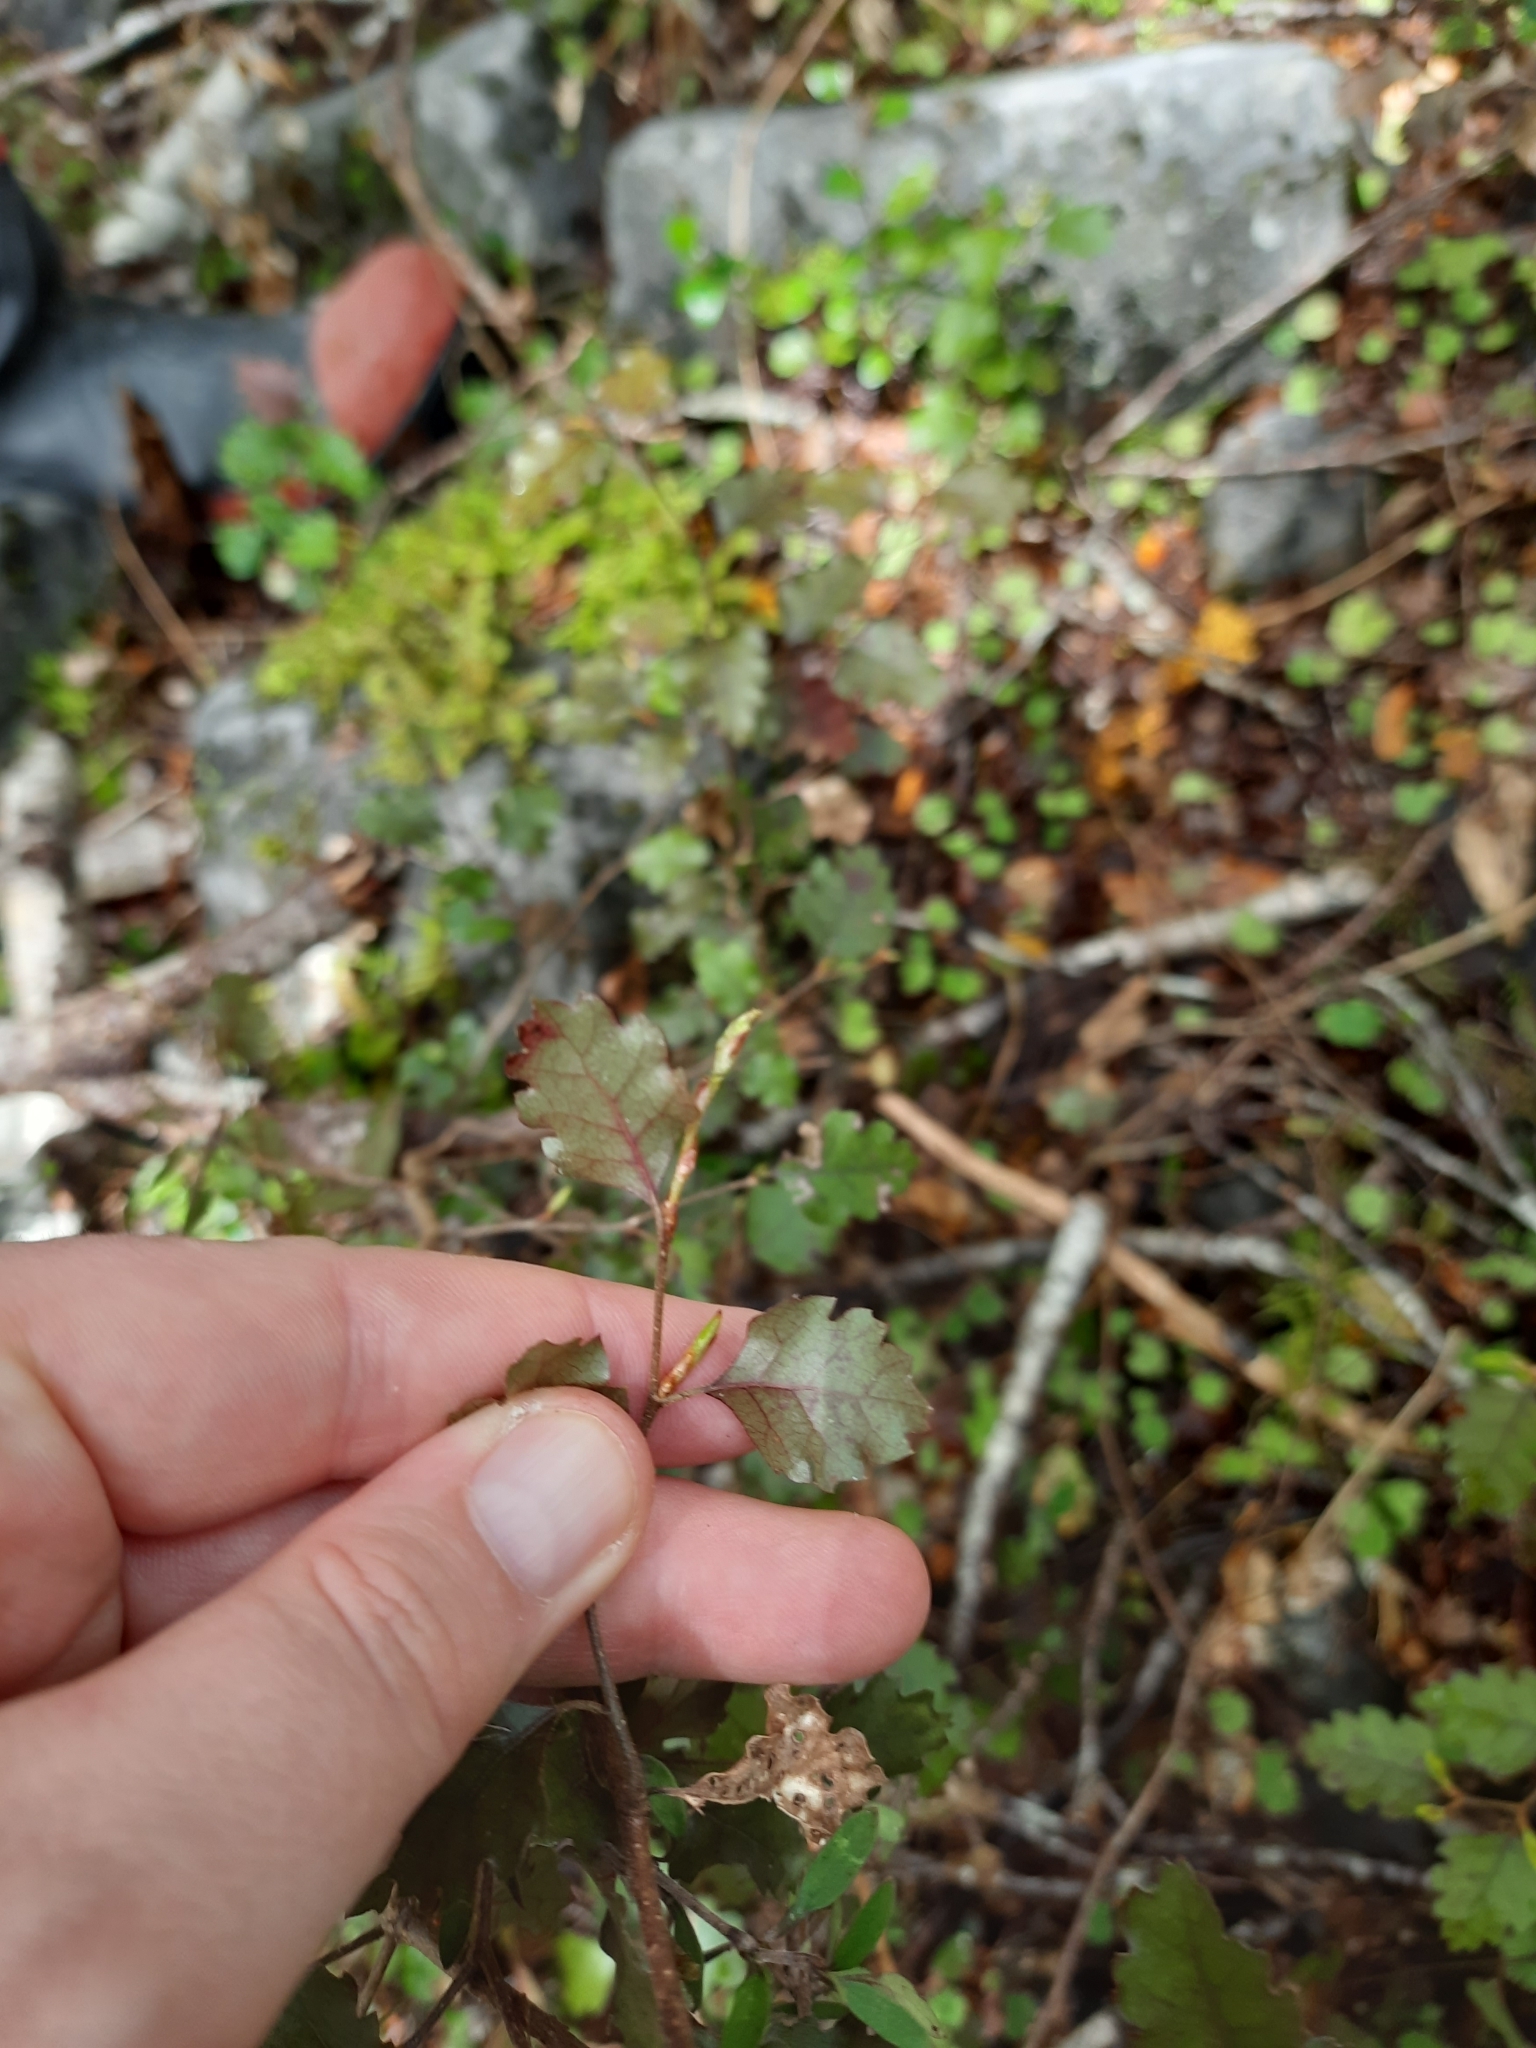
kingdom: Plantae
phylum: Tracheophyta
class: Magnoliopsida
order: Fagales
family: Nothofagaceae
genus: Nothofagus
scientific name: Nothofagus fusca
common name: Red beech
